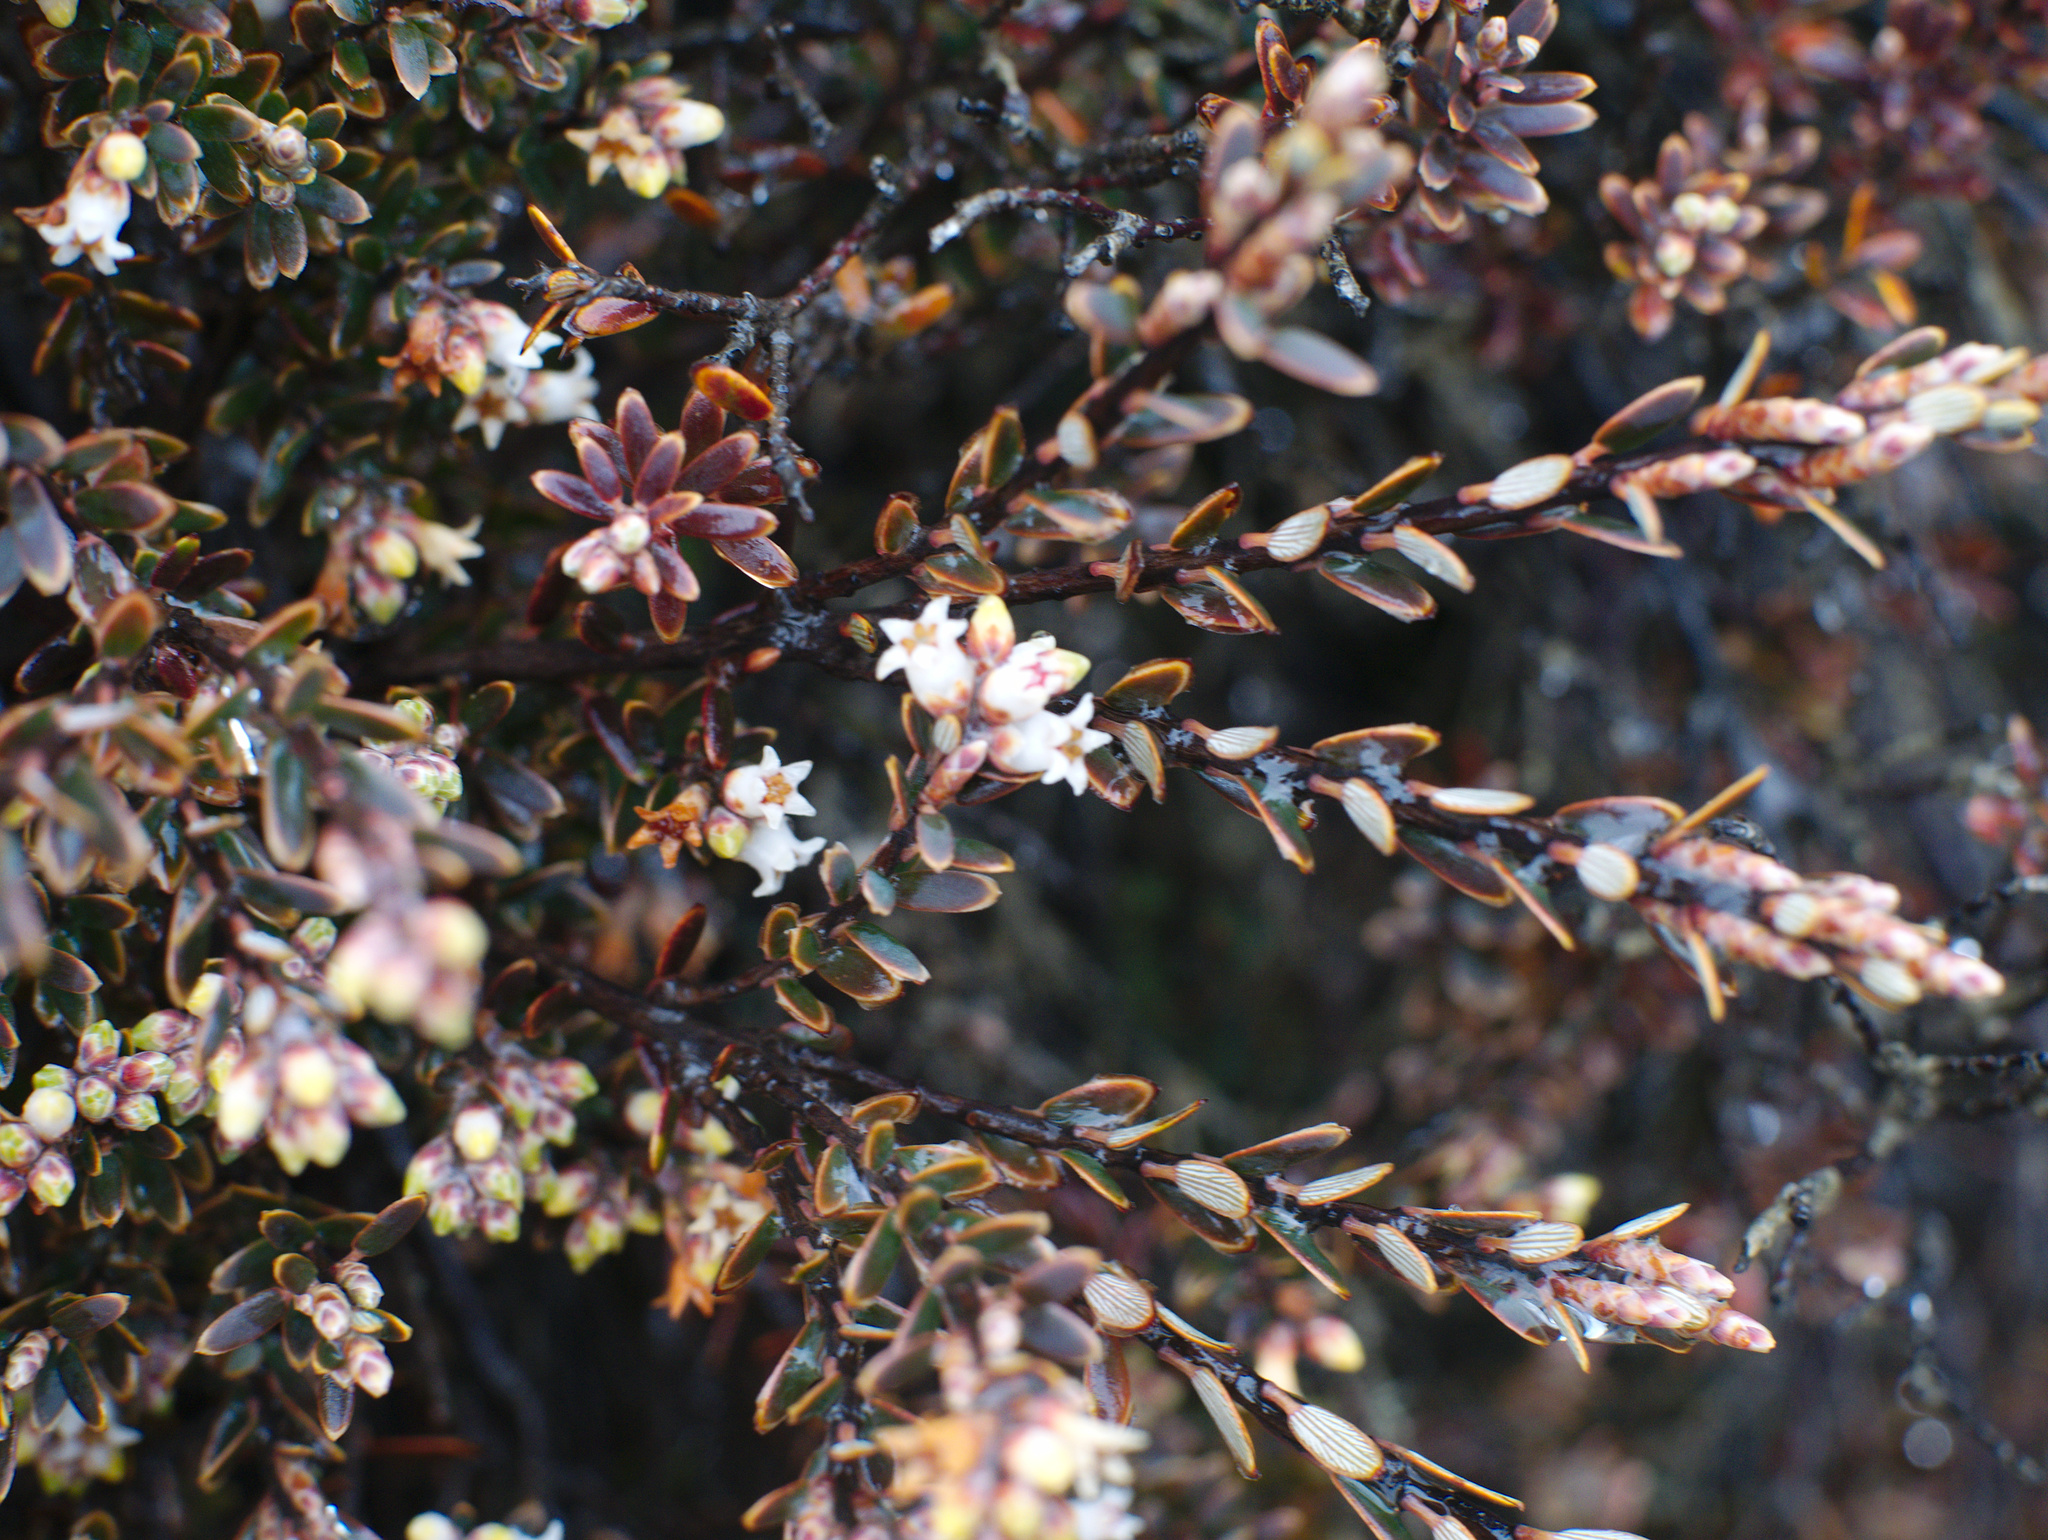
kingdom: Plantae
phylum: Tracheophyta
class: Magnoliopsida
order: Ericales
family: Ericaceae
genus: Acrothamnus
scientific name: Acrothamnus colensoi
